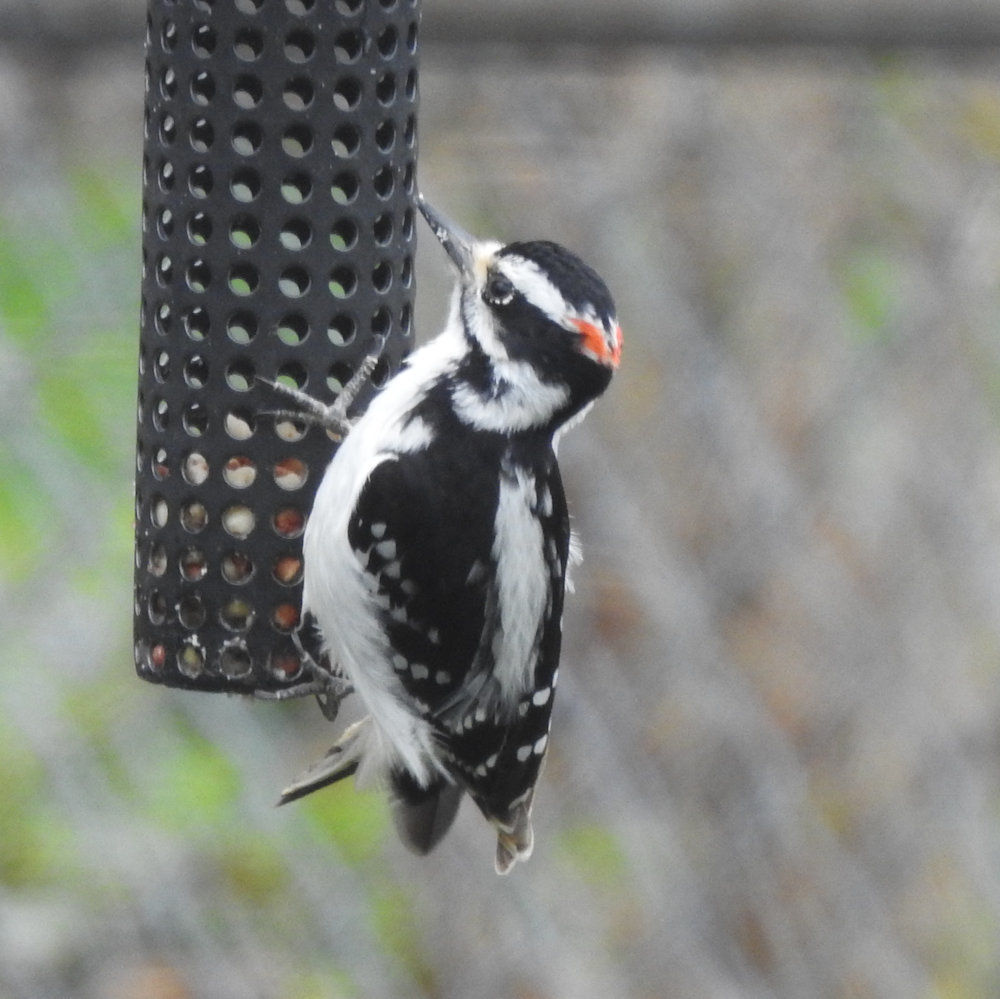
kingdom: Animalia
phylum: Chordata
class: Aves
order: Piciformes
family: Picidae
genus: Leuconotopicus
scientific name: Leuconotopicus villosus
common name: Hairy woodpecker
